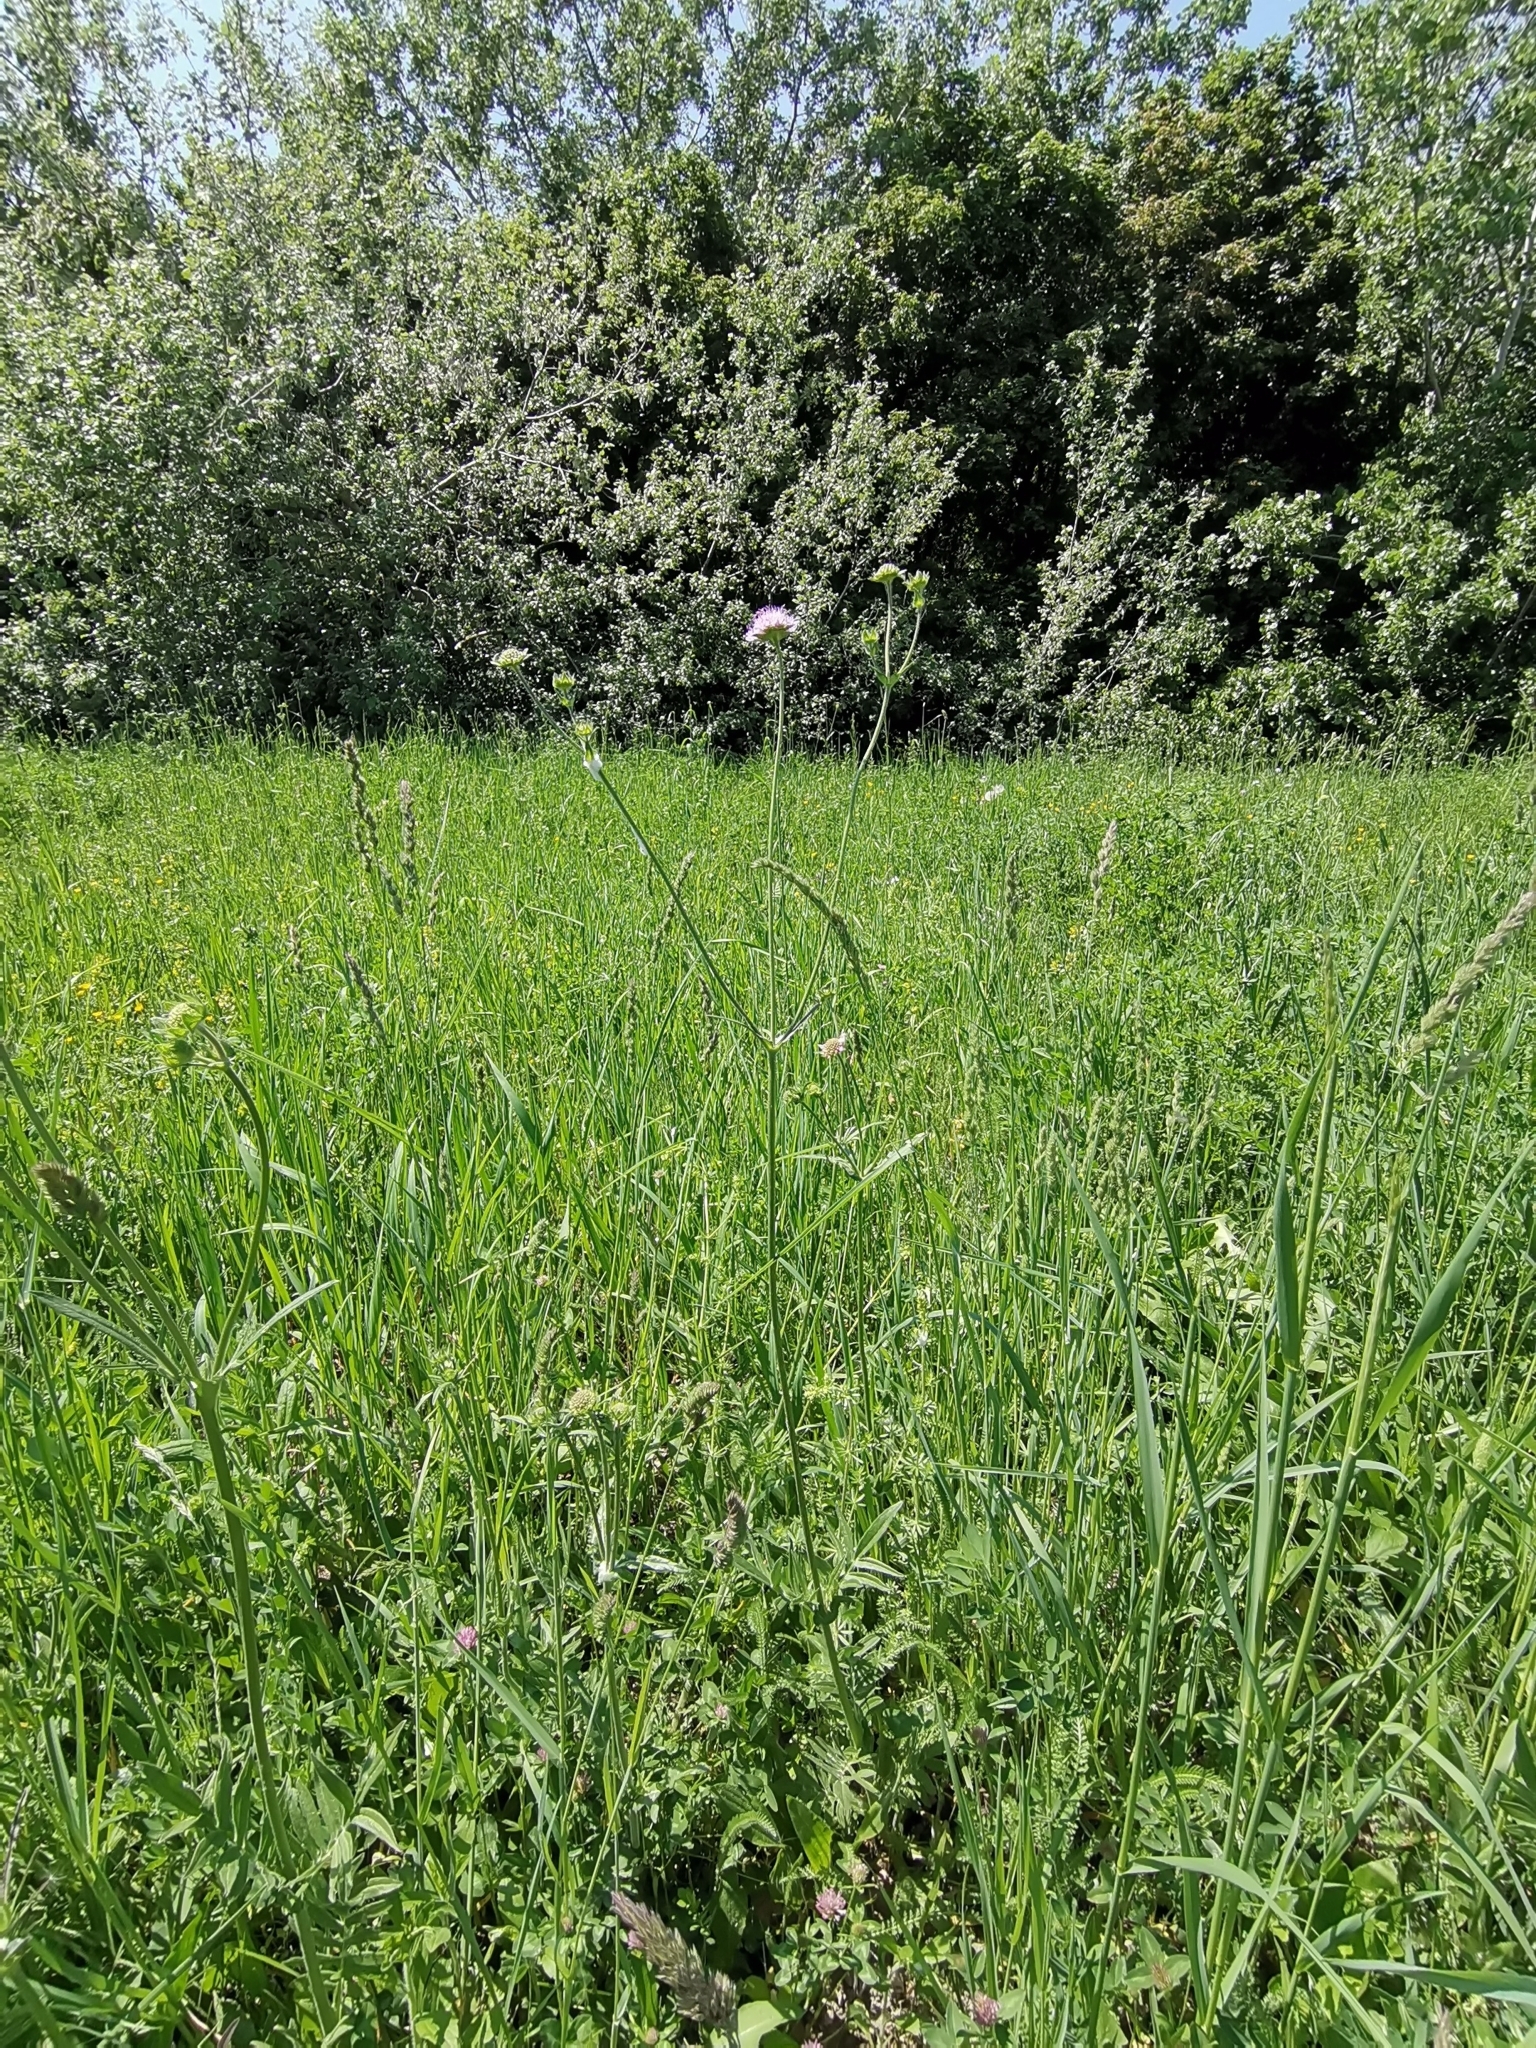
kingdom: Plantae
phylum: Tracheophyta
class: Magnoliopsida
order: Dipsacales
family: Caprifoliaceae
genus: Knautia
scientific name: Knautia arvensis
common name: Field scabiosa
